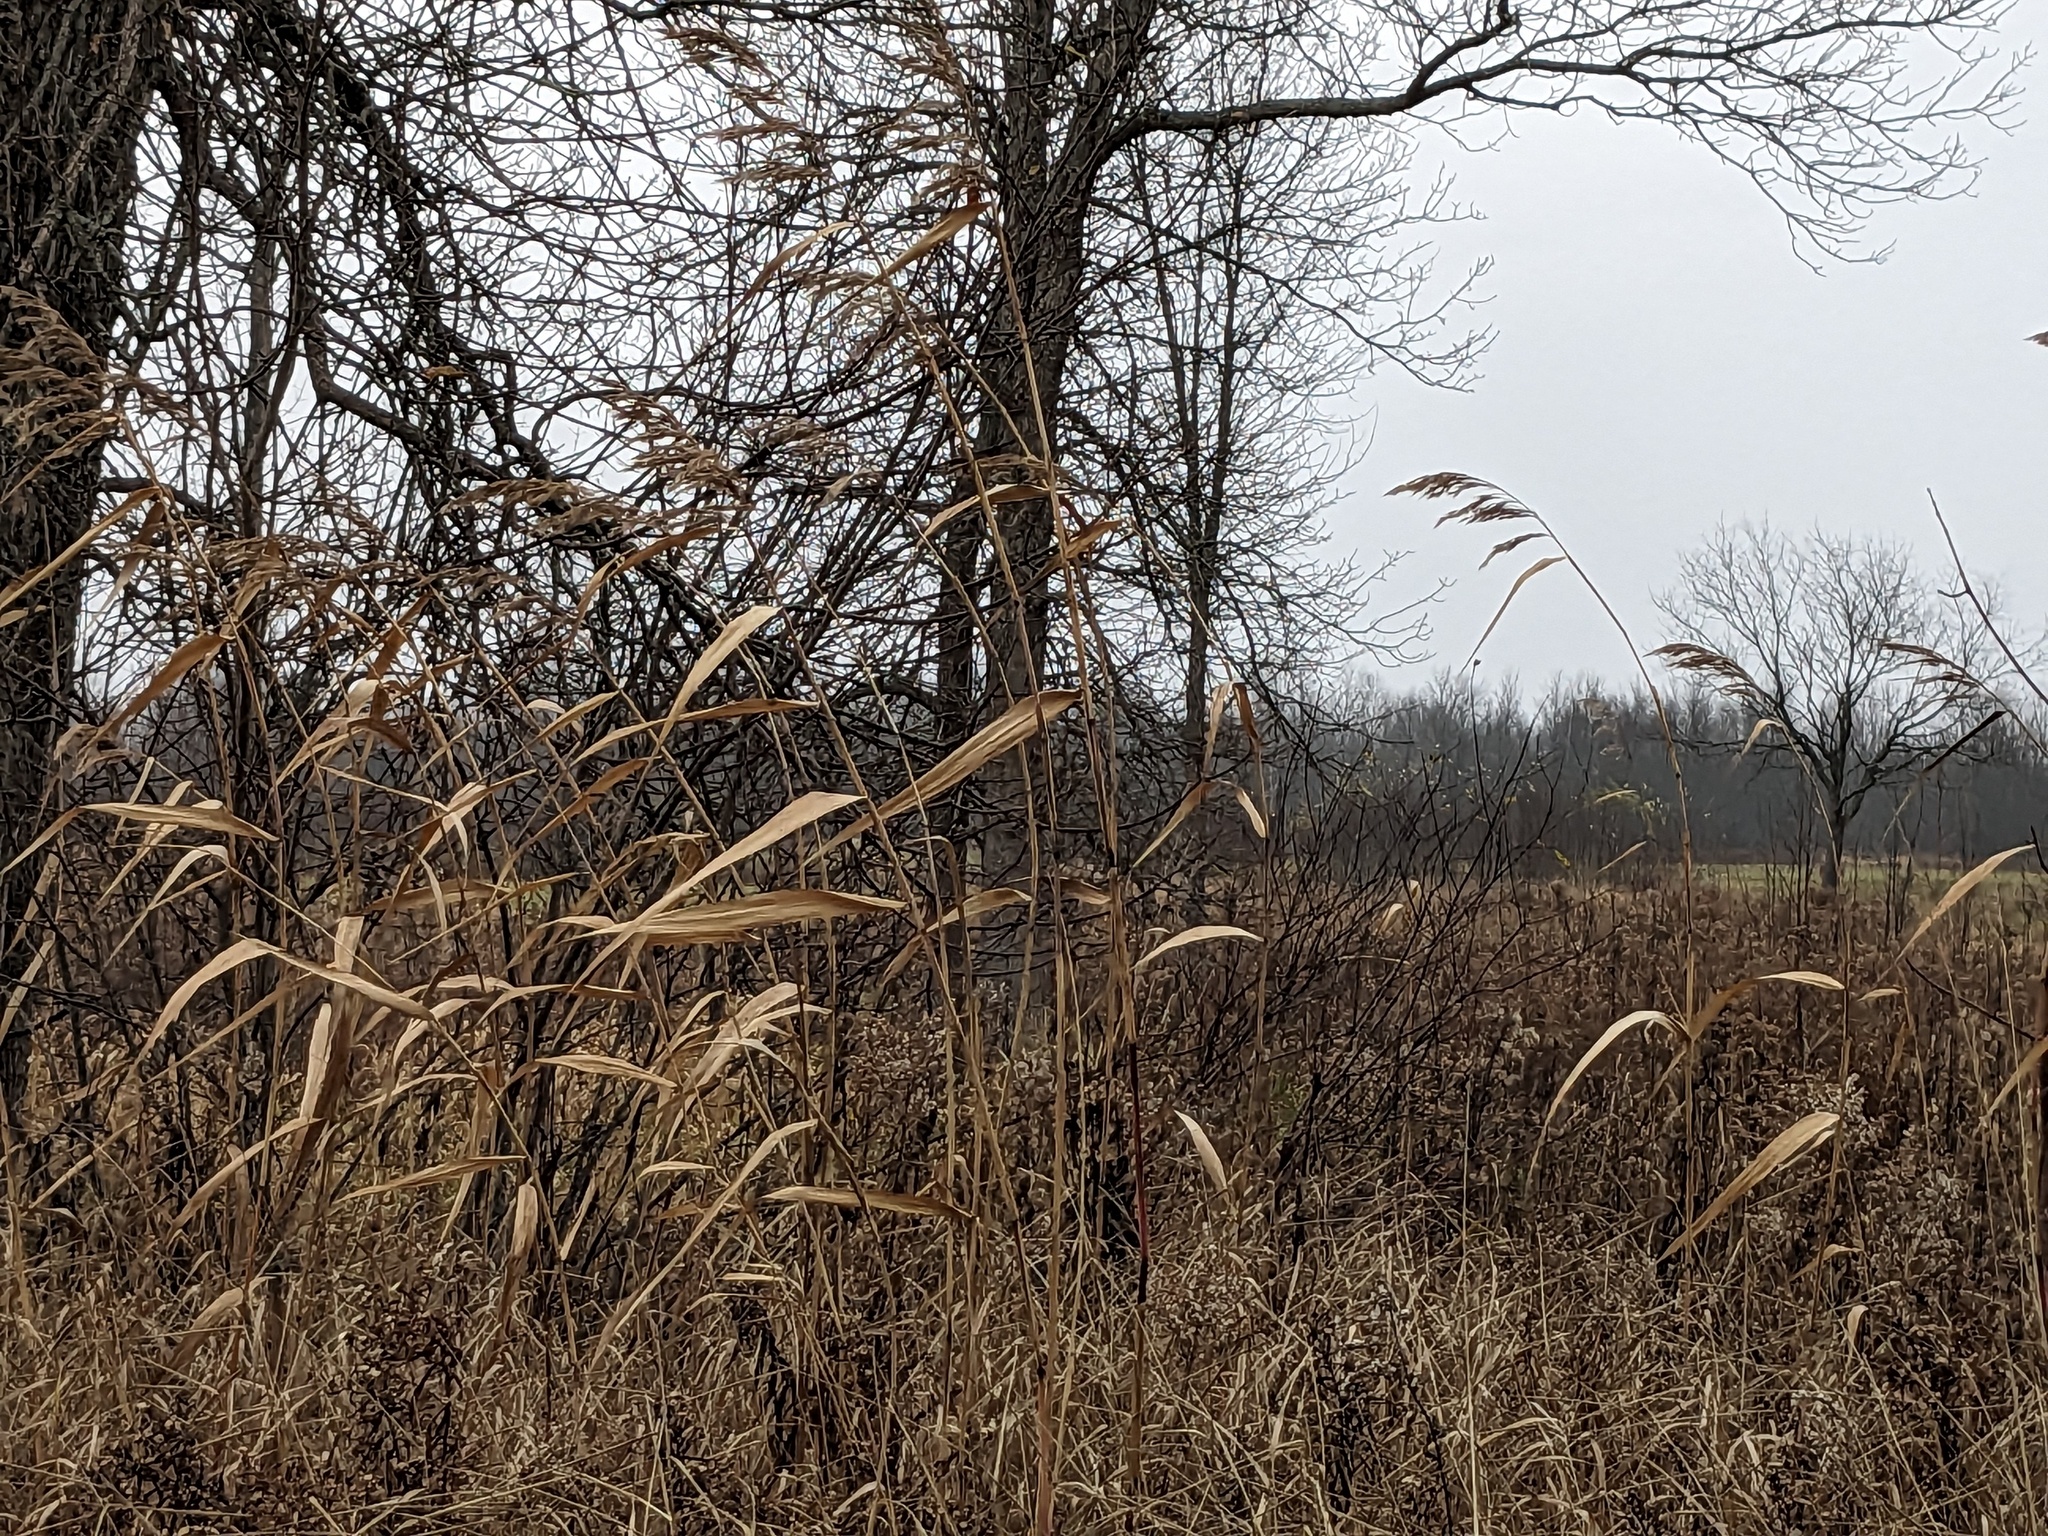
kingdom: Plantae
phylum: Tracheophyta
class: Liliopsida
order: Poales
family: Poaceae
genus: Phragmites
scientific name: Phragmites australis
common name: Common reed
